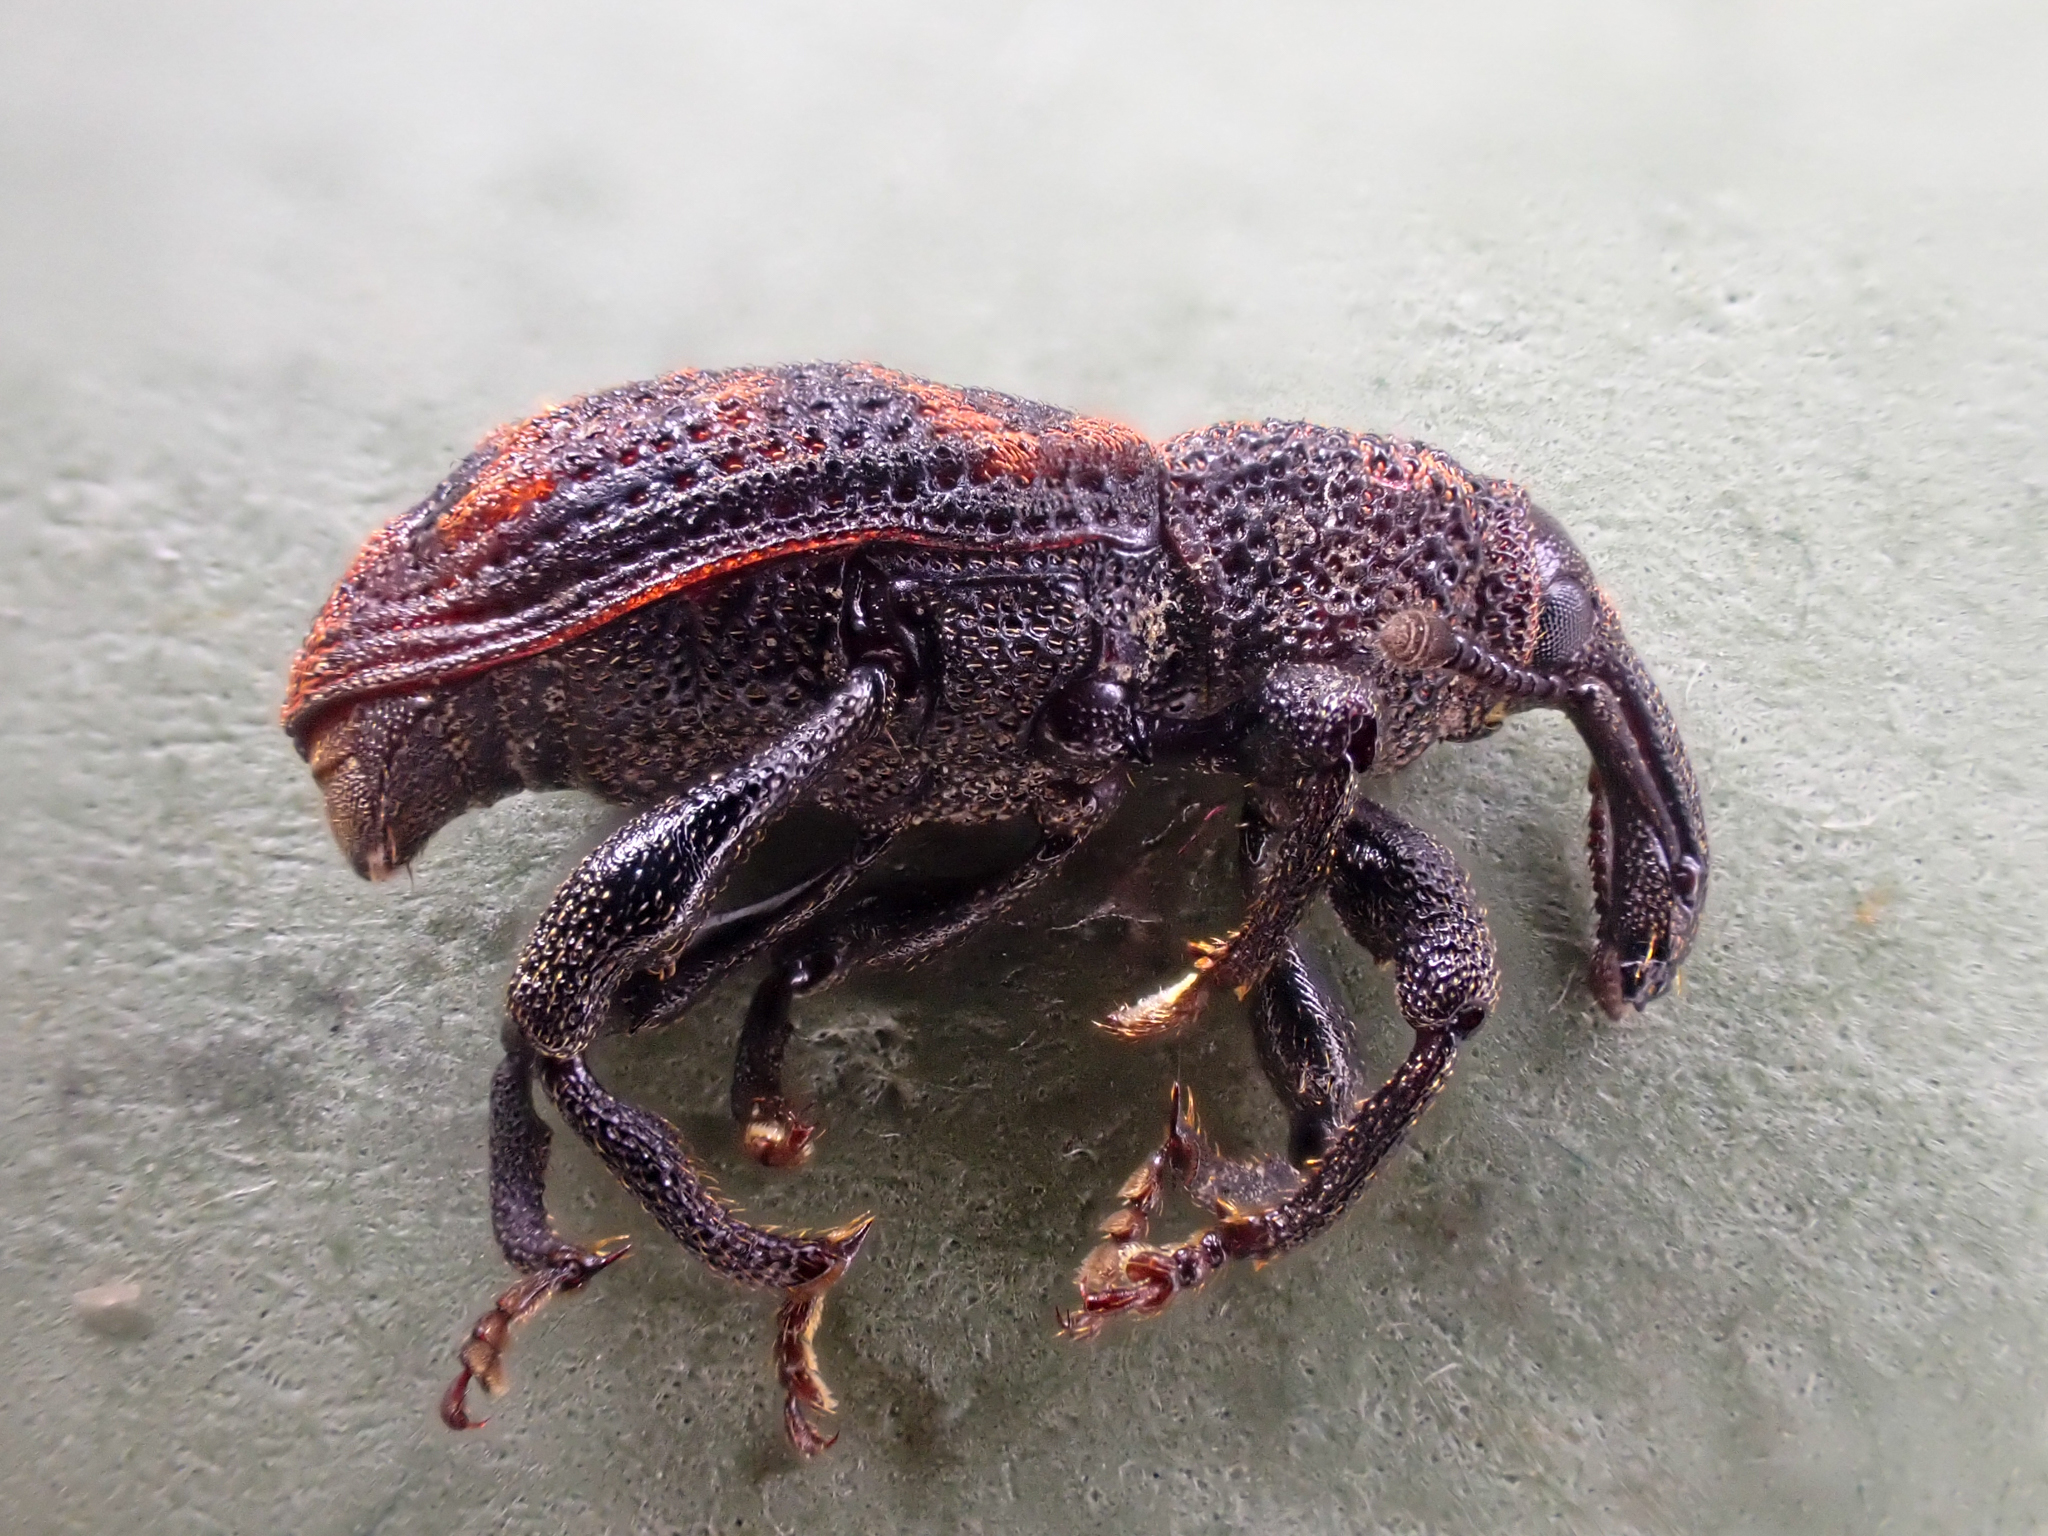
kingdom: Animalia
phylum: Arthropoda
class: Insecta
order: Coleoptera
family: Curculionidae
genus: Steremnius
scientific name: Steremnius carinatus
